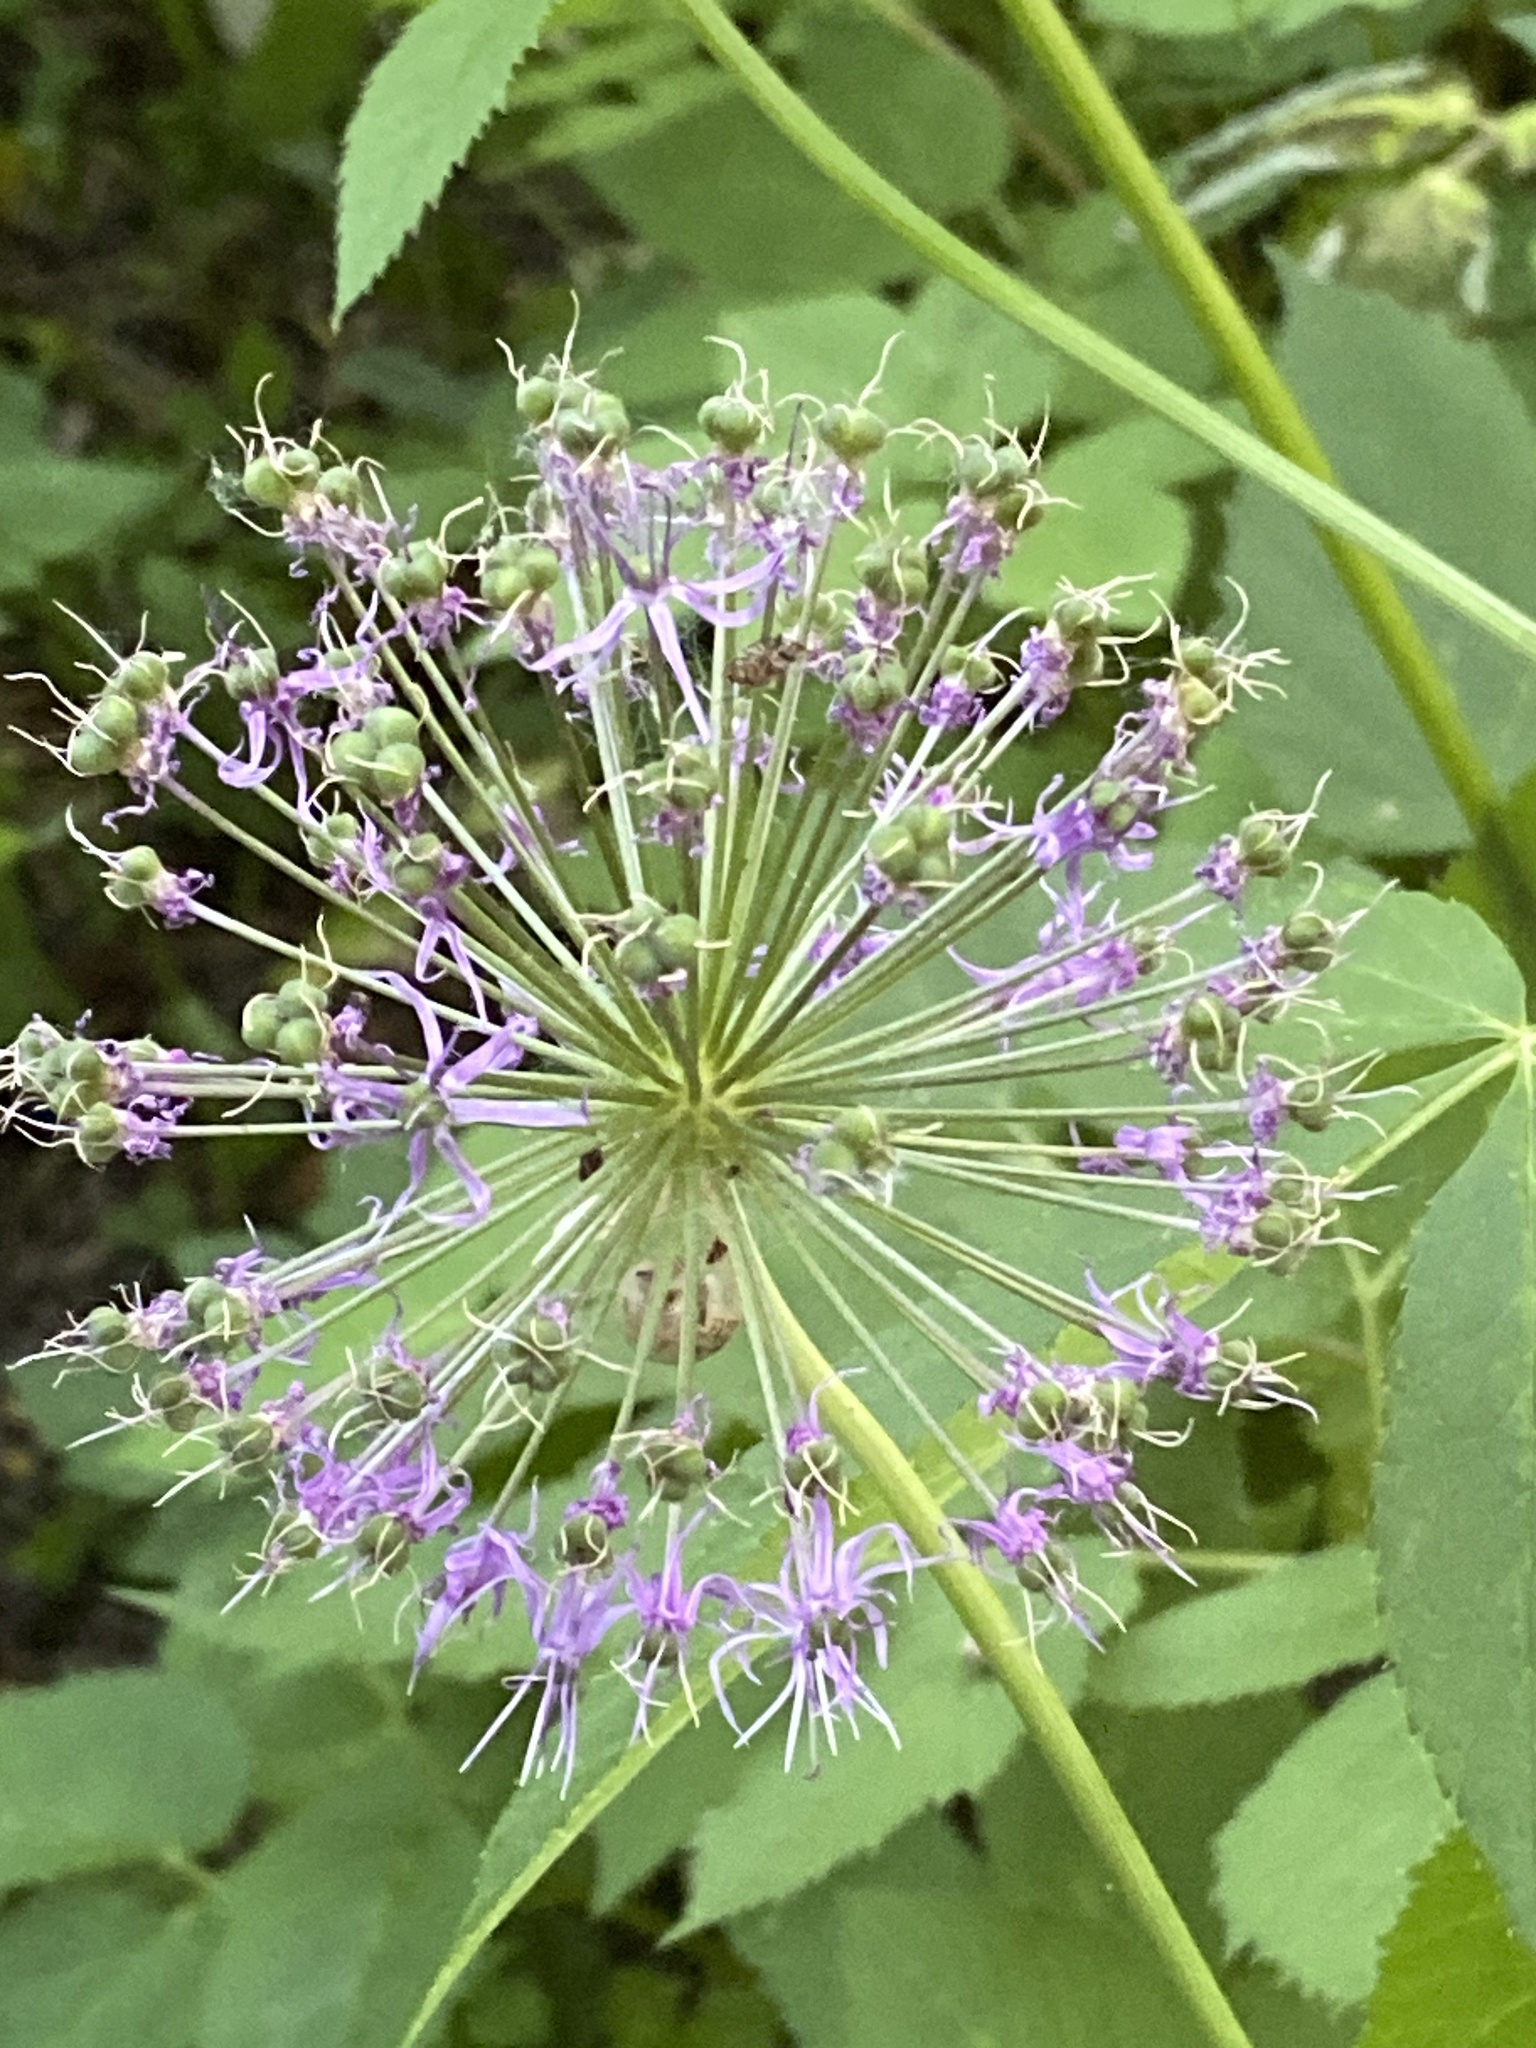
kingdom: Plantae
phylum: Tracheophyta
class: Liliopsida
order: Asparagales
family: Amaryllidaceae
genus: Allium
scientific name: Allium rosenorum
